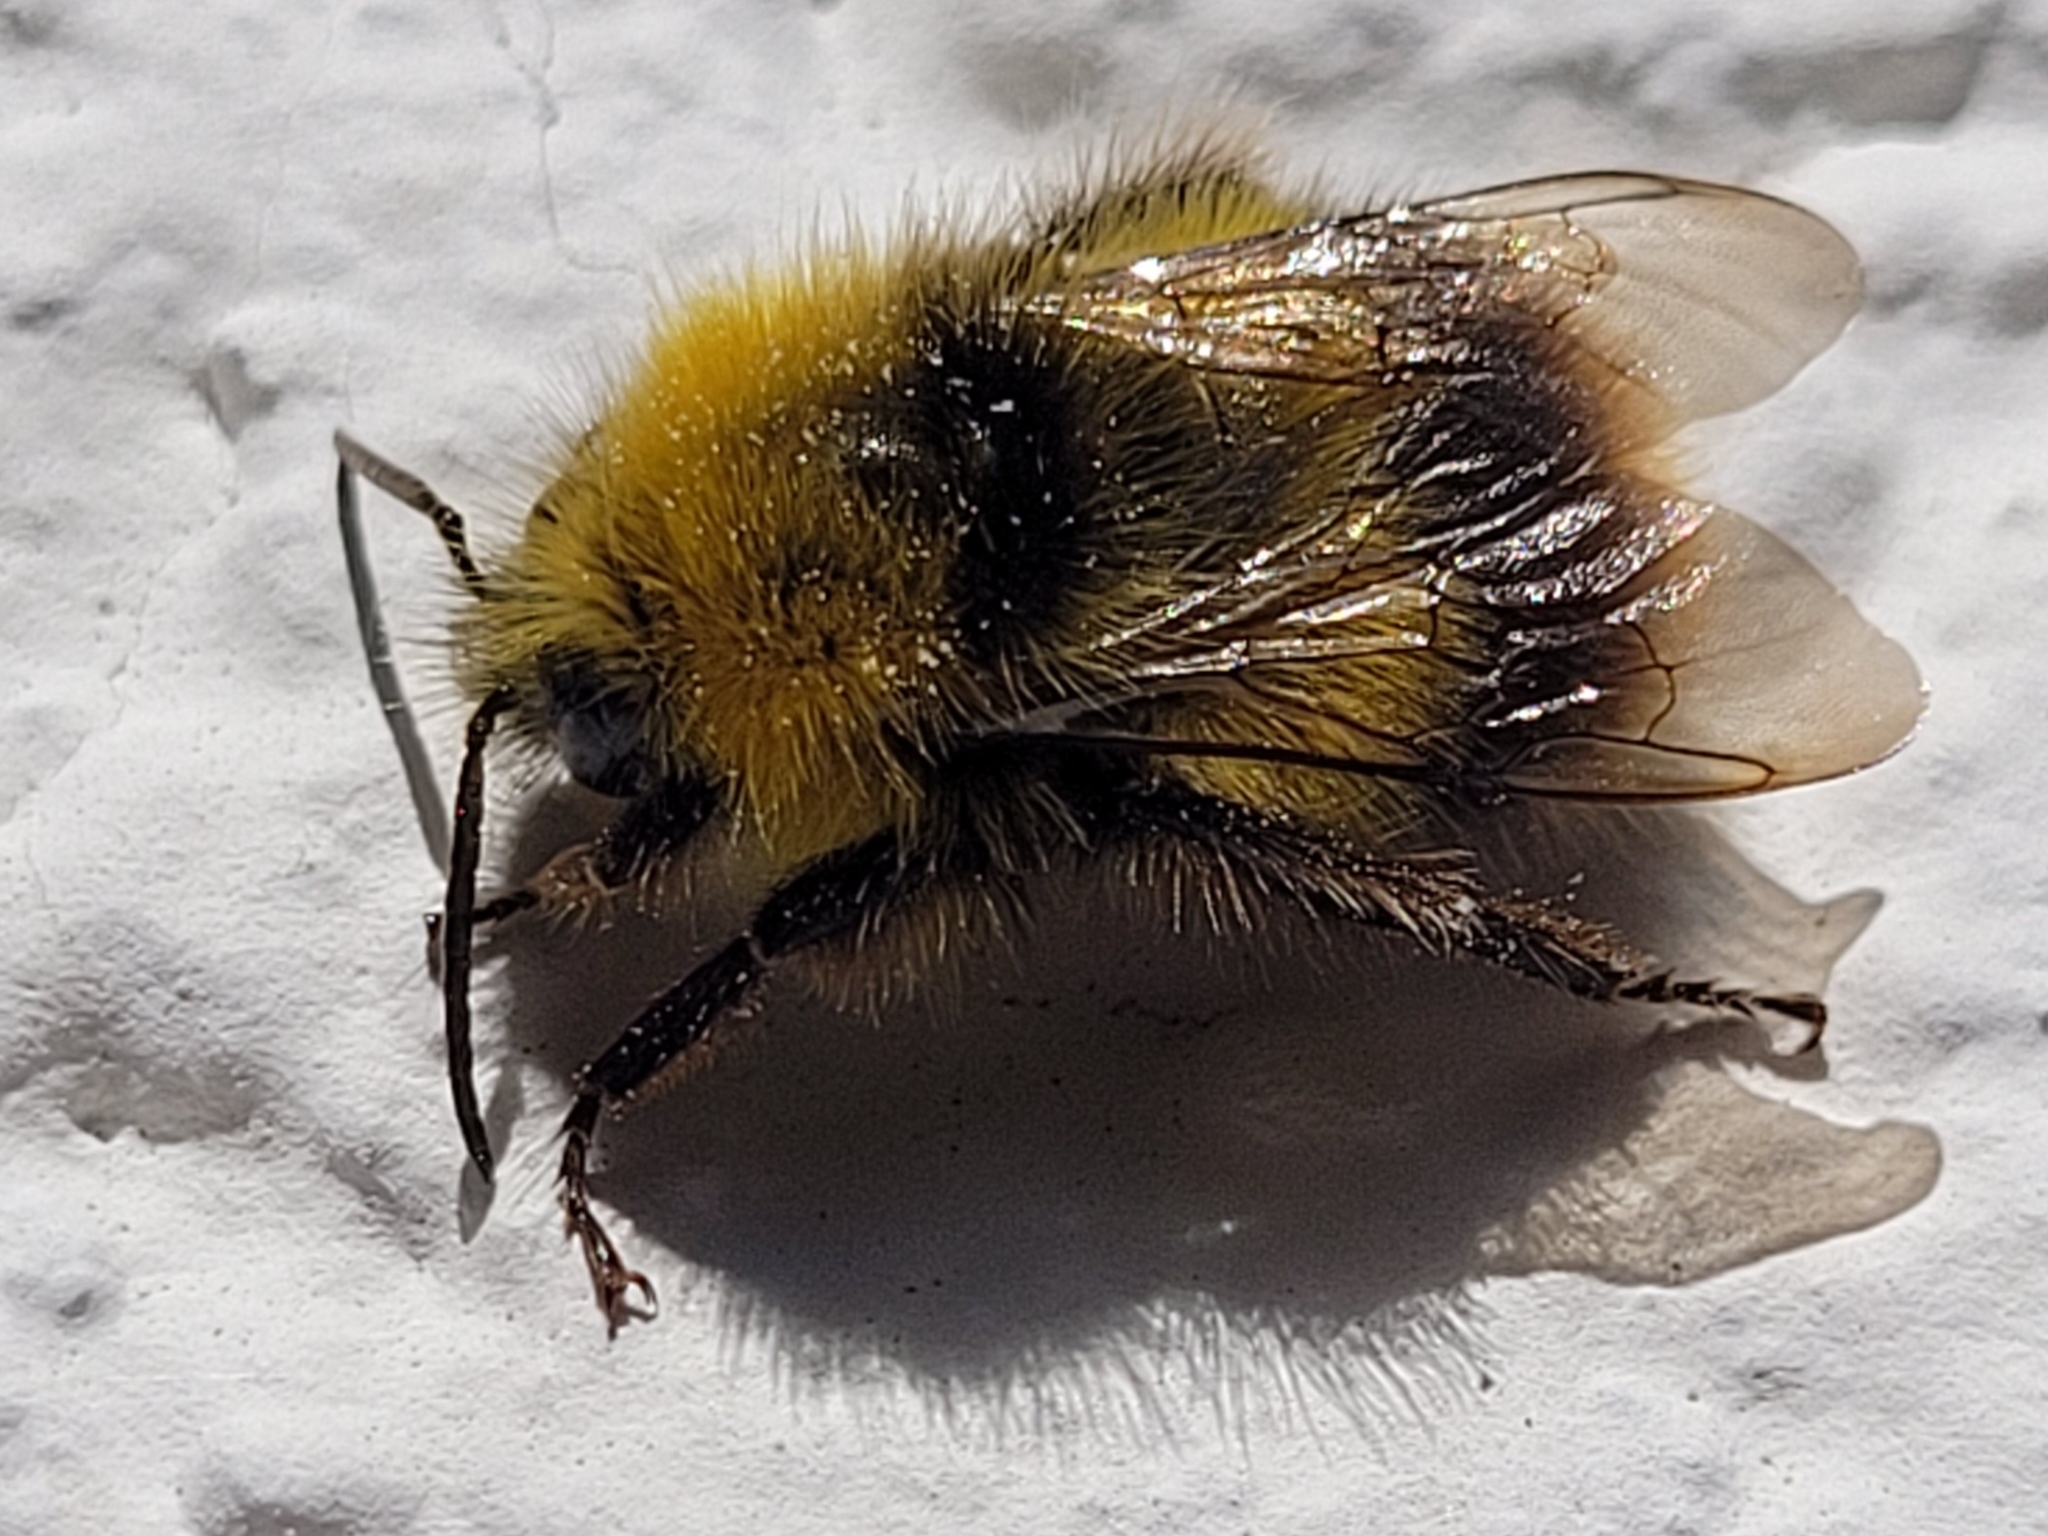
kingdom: Animalia
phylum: Arthropoda
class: Insecta
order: Hymenoptera
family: Apidae
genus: Bombus
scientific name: Bombus pratorum
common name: Early humble-bee
